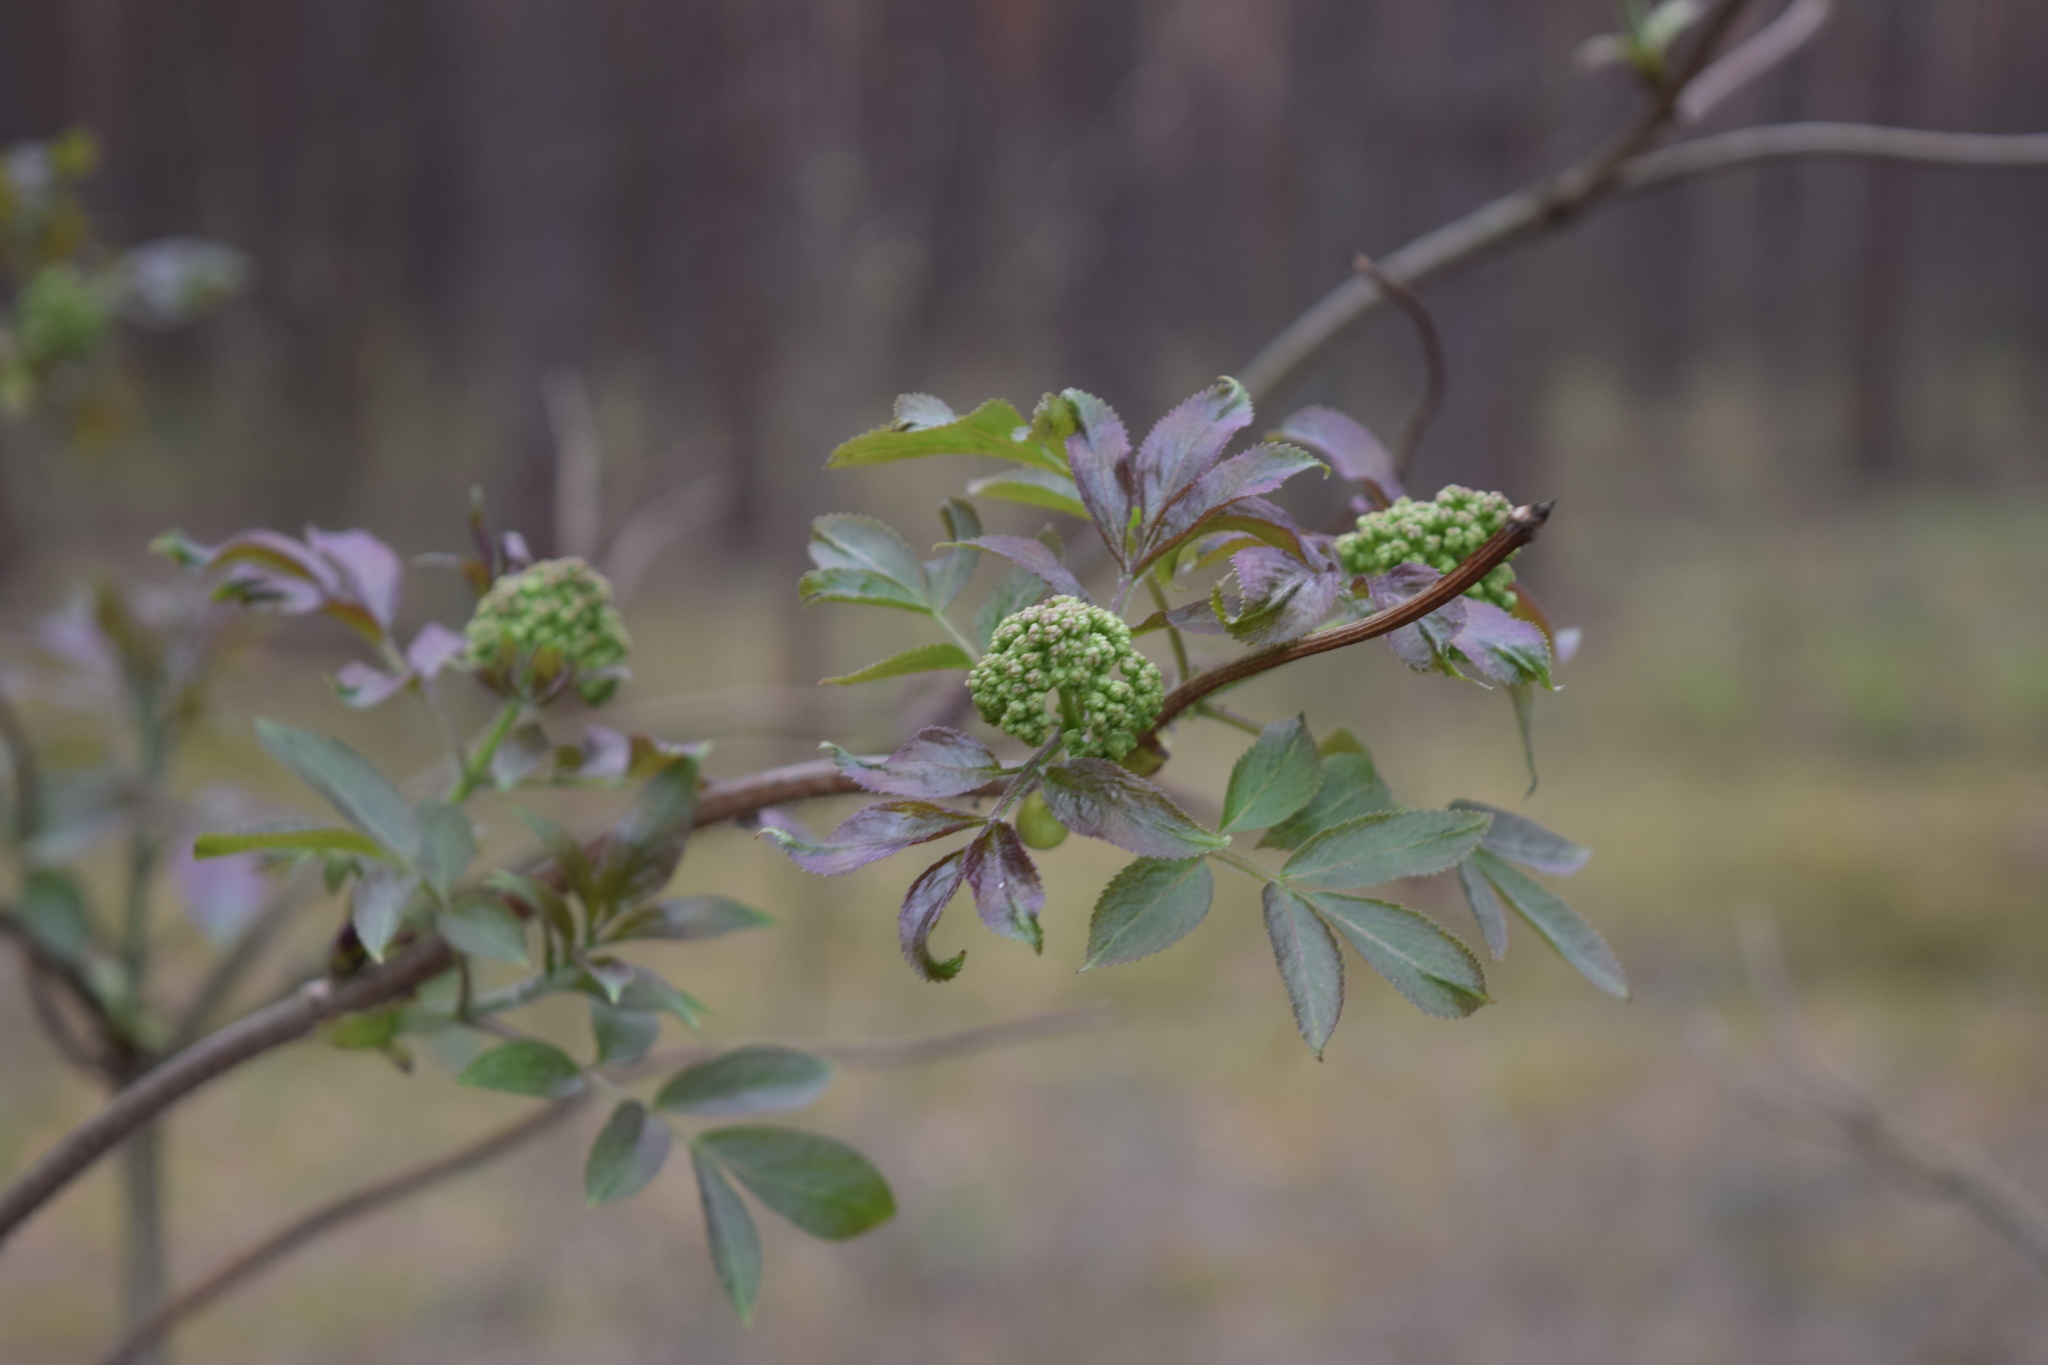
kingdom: Plantae
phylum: Tracheophyta
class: Magnoliopsida
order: Dipsacales
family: Viburnaceae
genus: Sambucus
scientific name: Sambucus racemosa
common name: Red-berried elder
